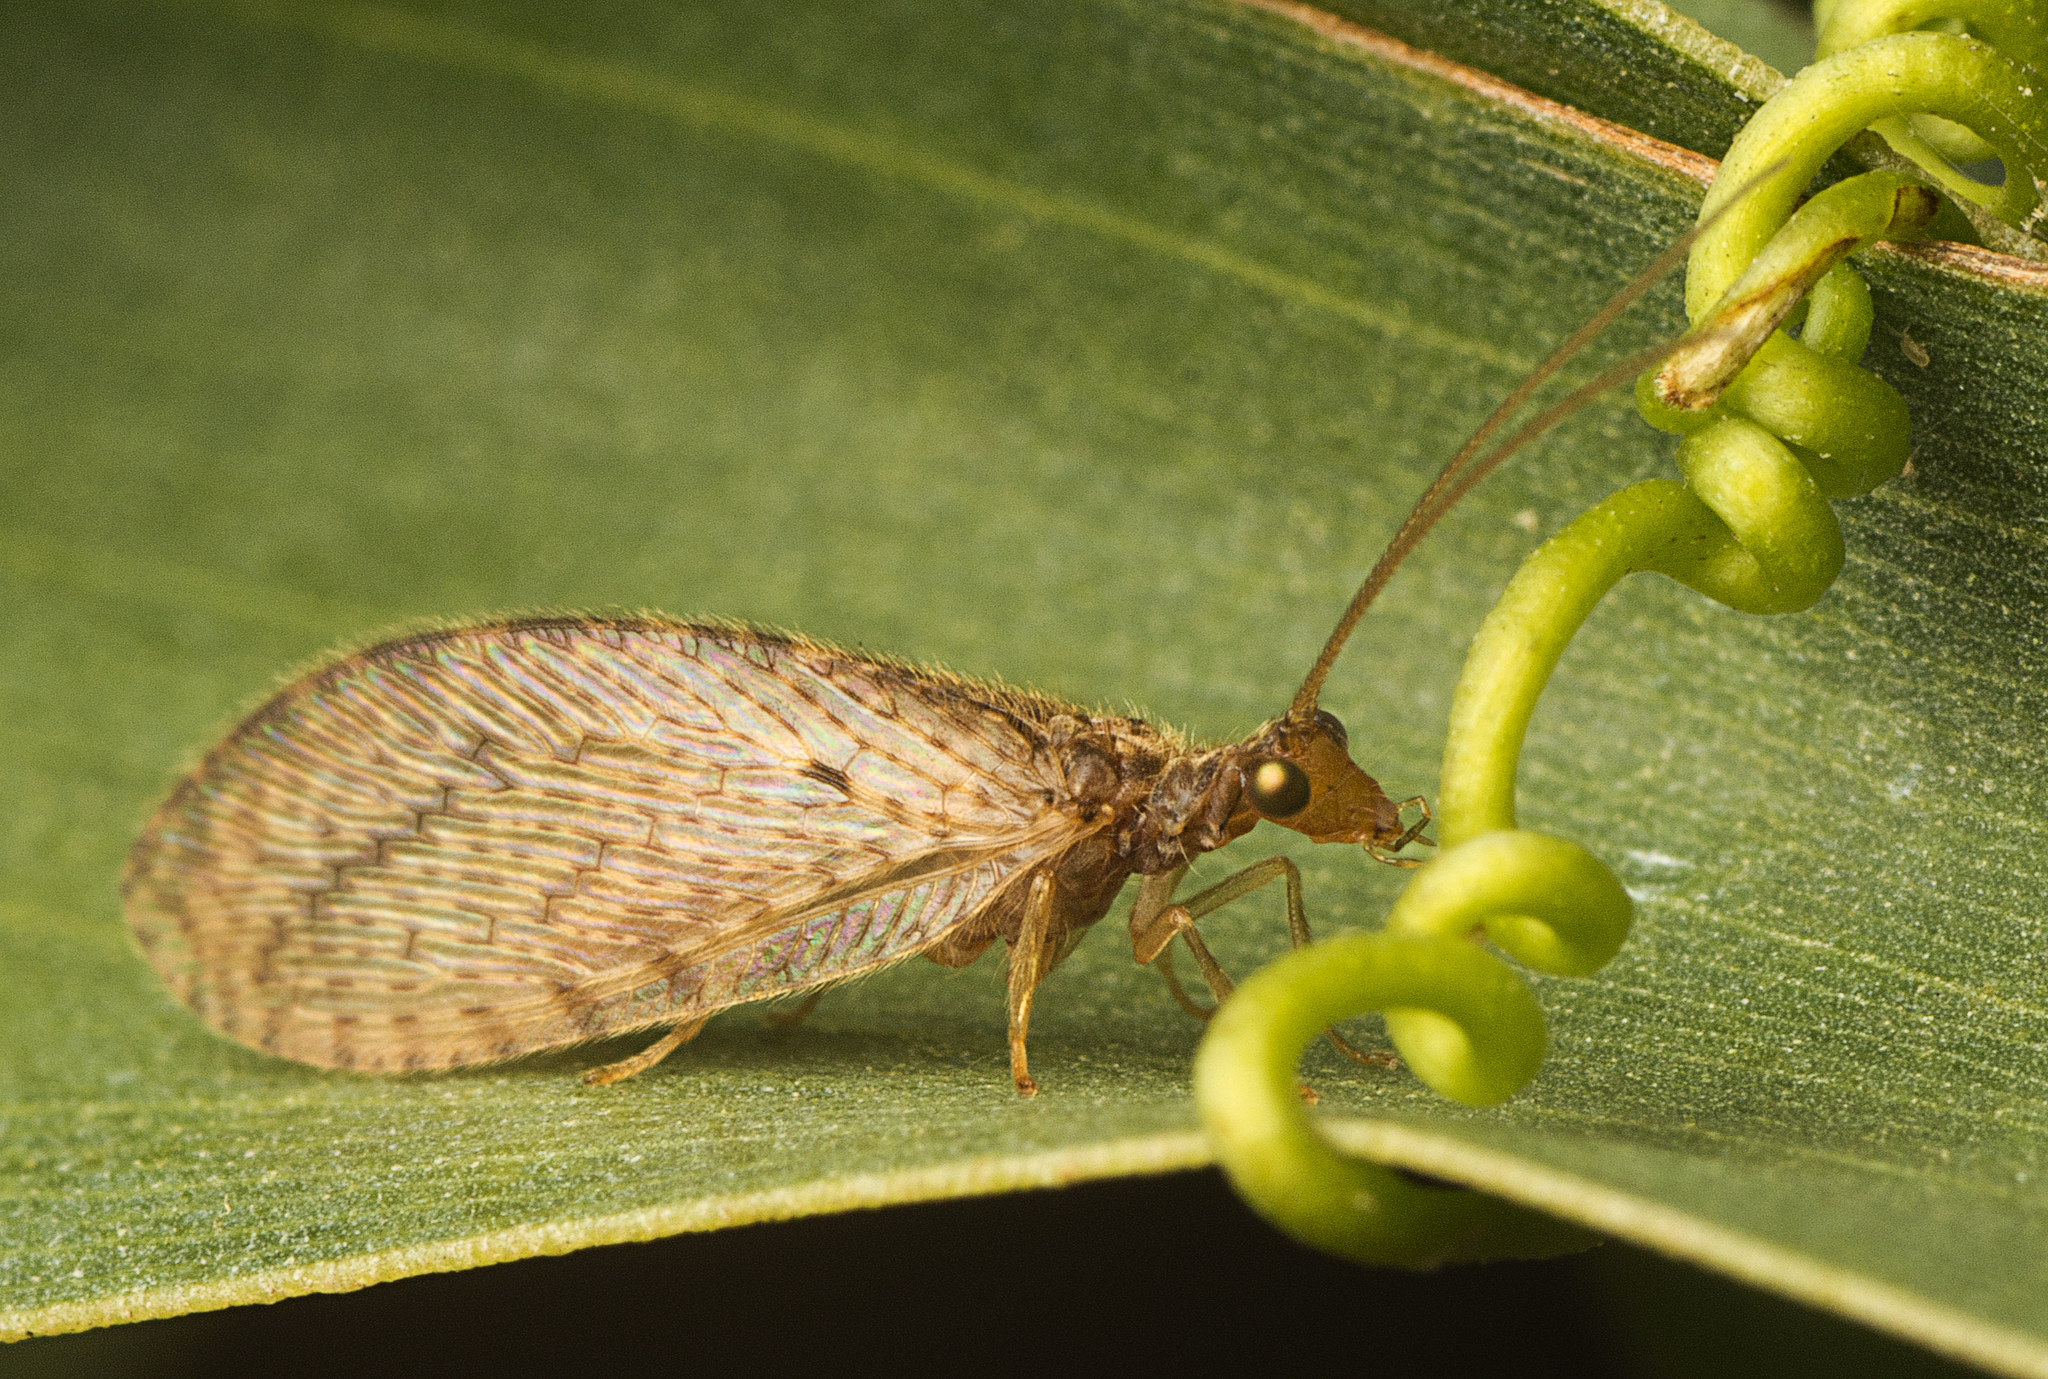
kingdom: Animalia
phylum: Arthropoda
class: Insecta
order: Neuroptera
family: Hemerobiidae
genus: Micromus
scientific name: Micromus timidus
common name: Brown lacewing
